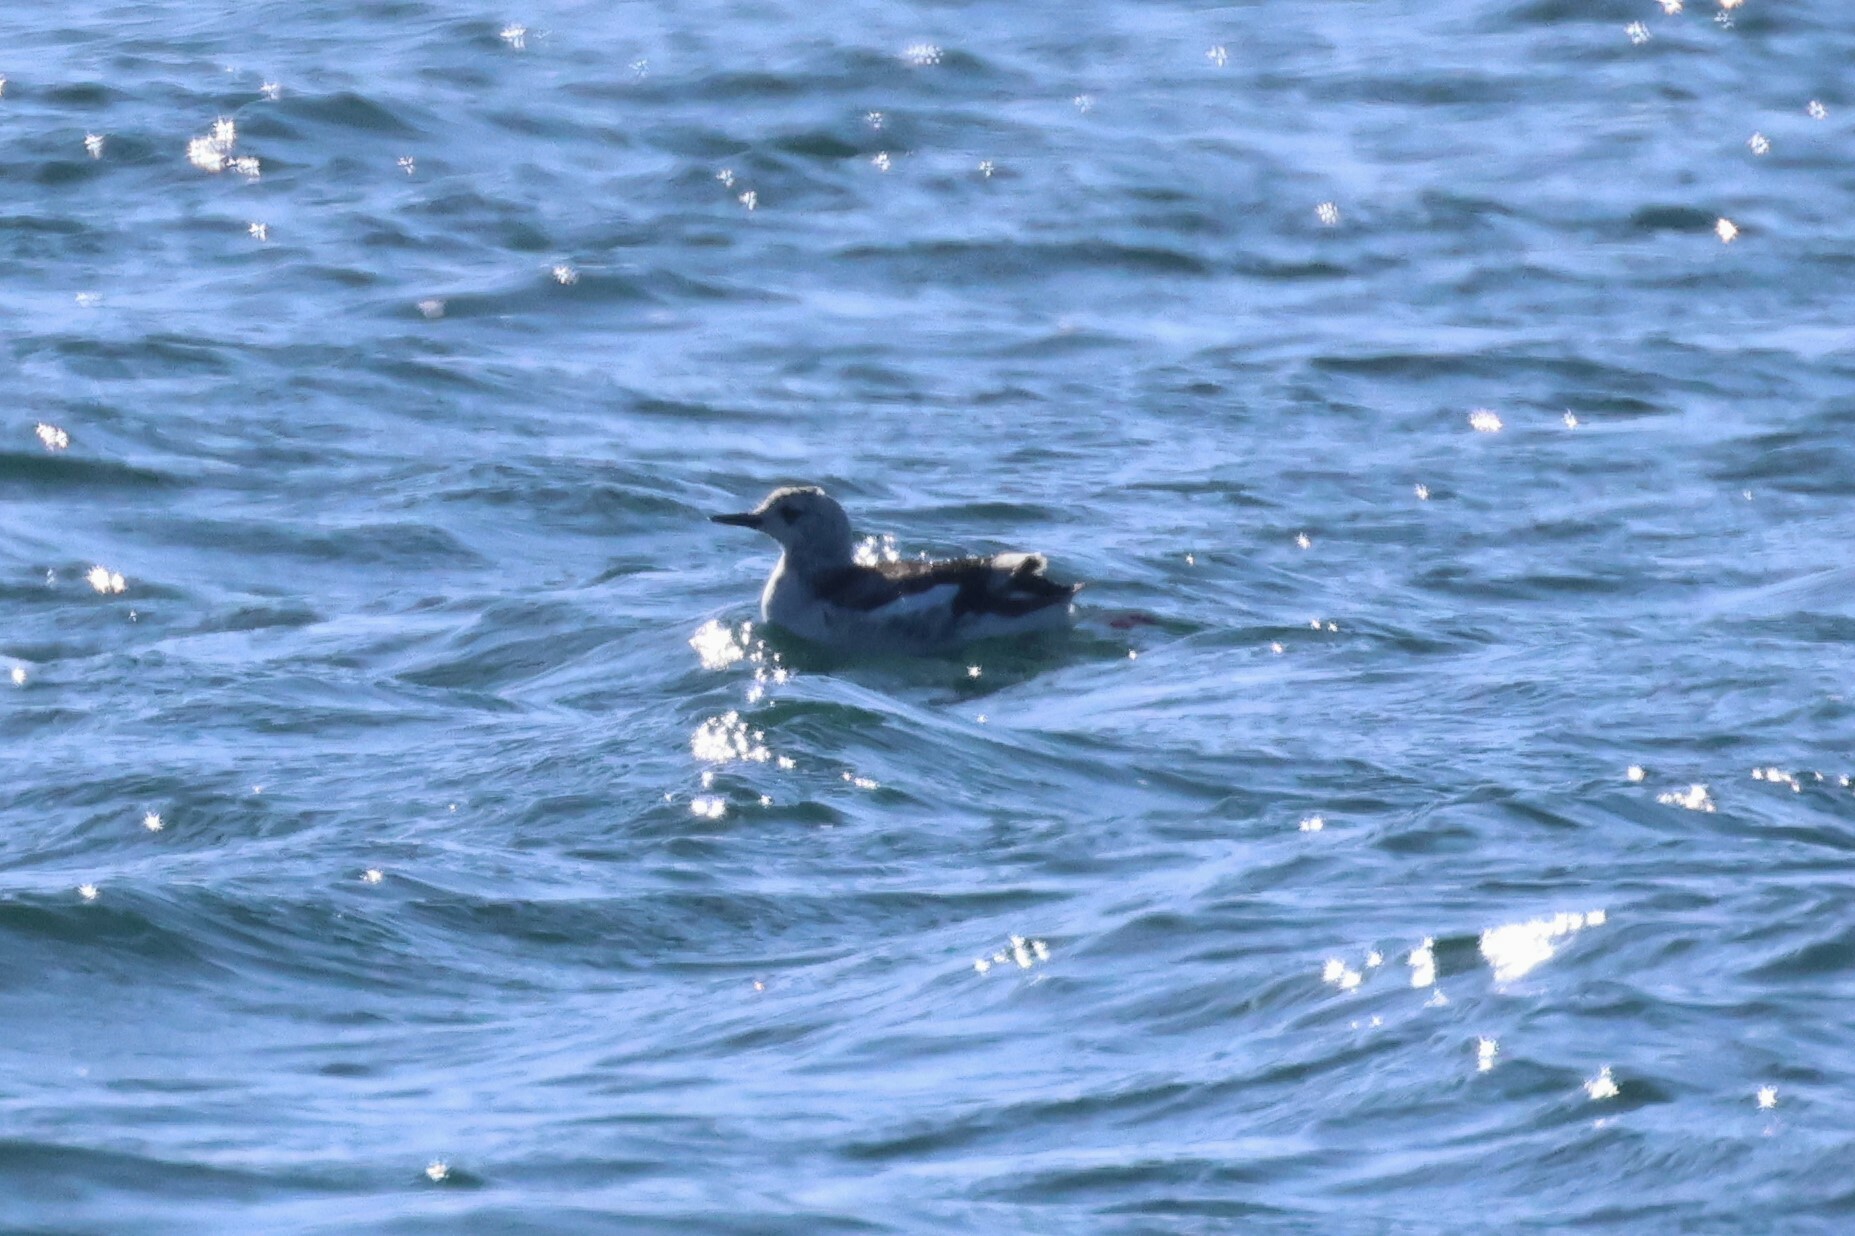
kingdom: Animalia
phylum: Chordata
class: Aves
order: Charadriiformes
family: Alcidae
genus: Cepphus
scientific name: Cepphus grylle
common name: Black guillemot
